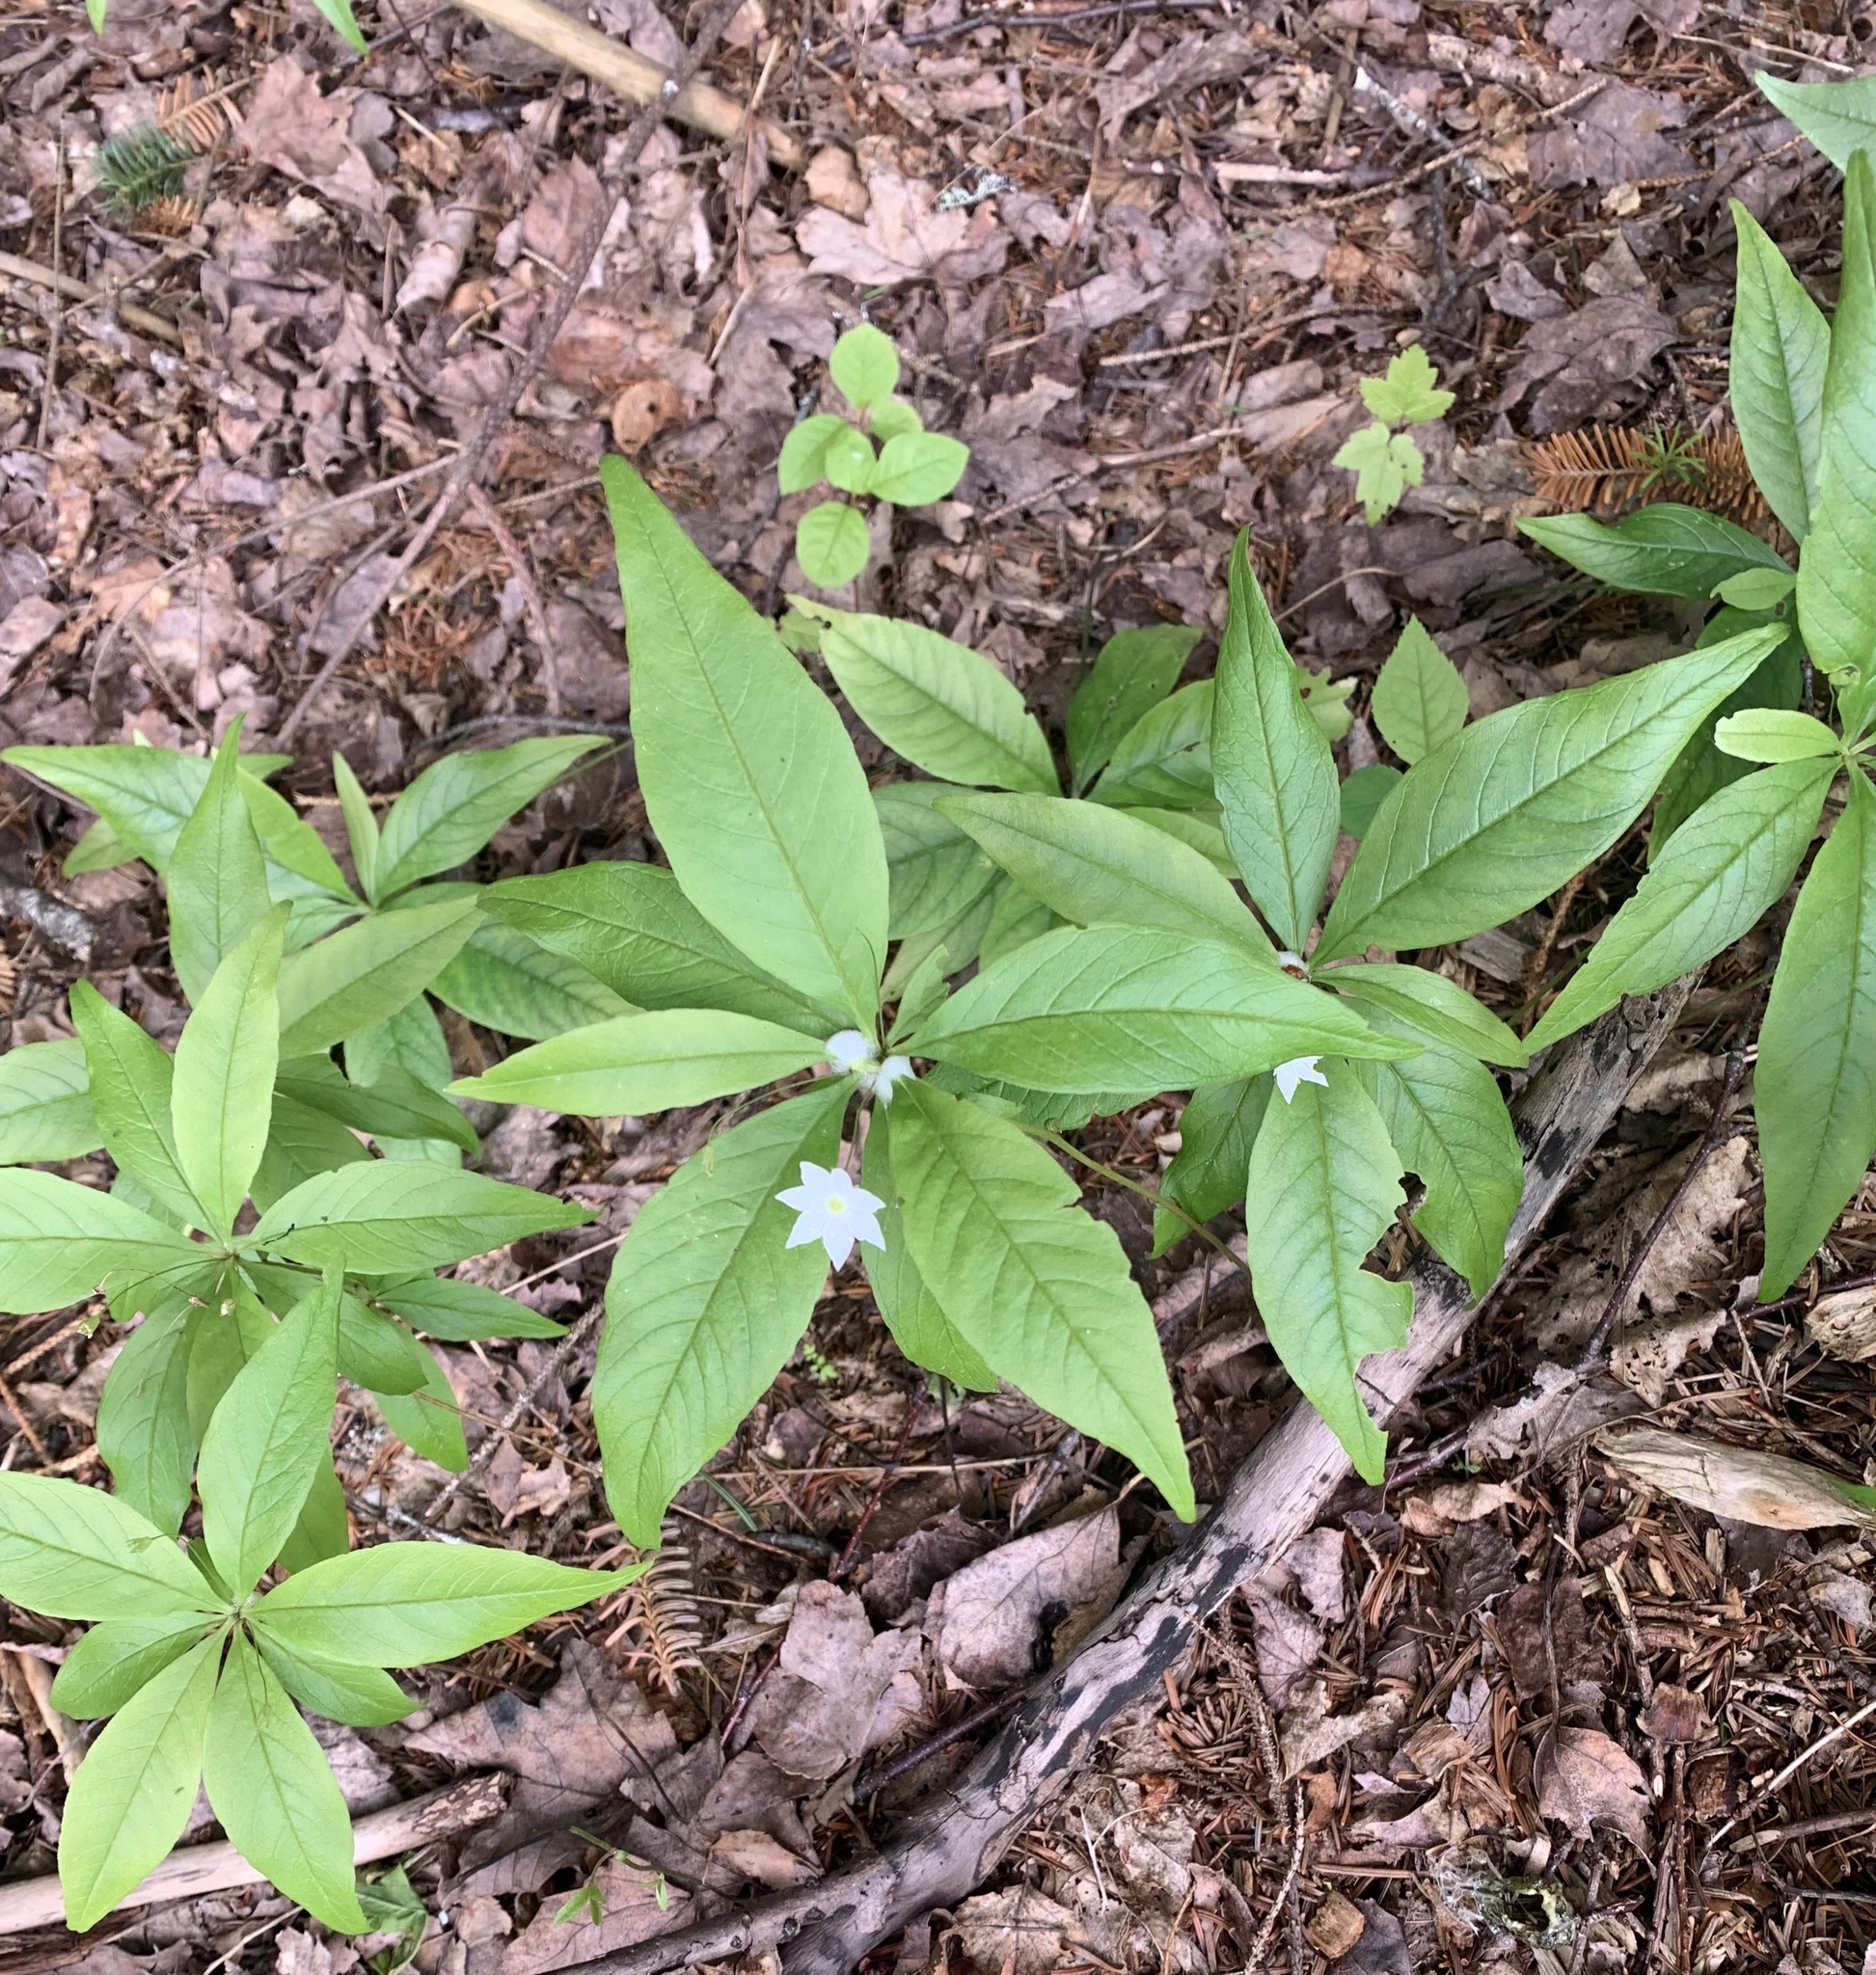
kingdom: Plantae
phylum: Tracheophyta
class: Magnoliopsida
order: Ericales
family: Primulaceae
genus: Lysimachia
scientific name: Lysimachia borealis
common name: American starflower
